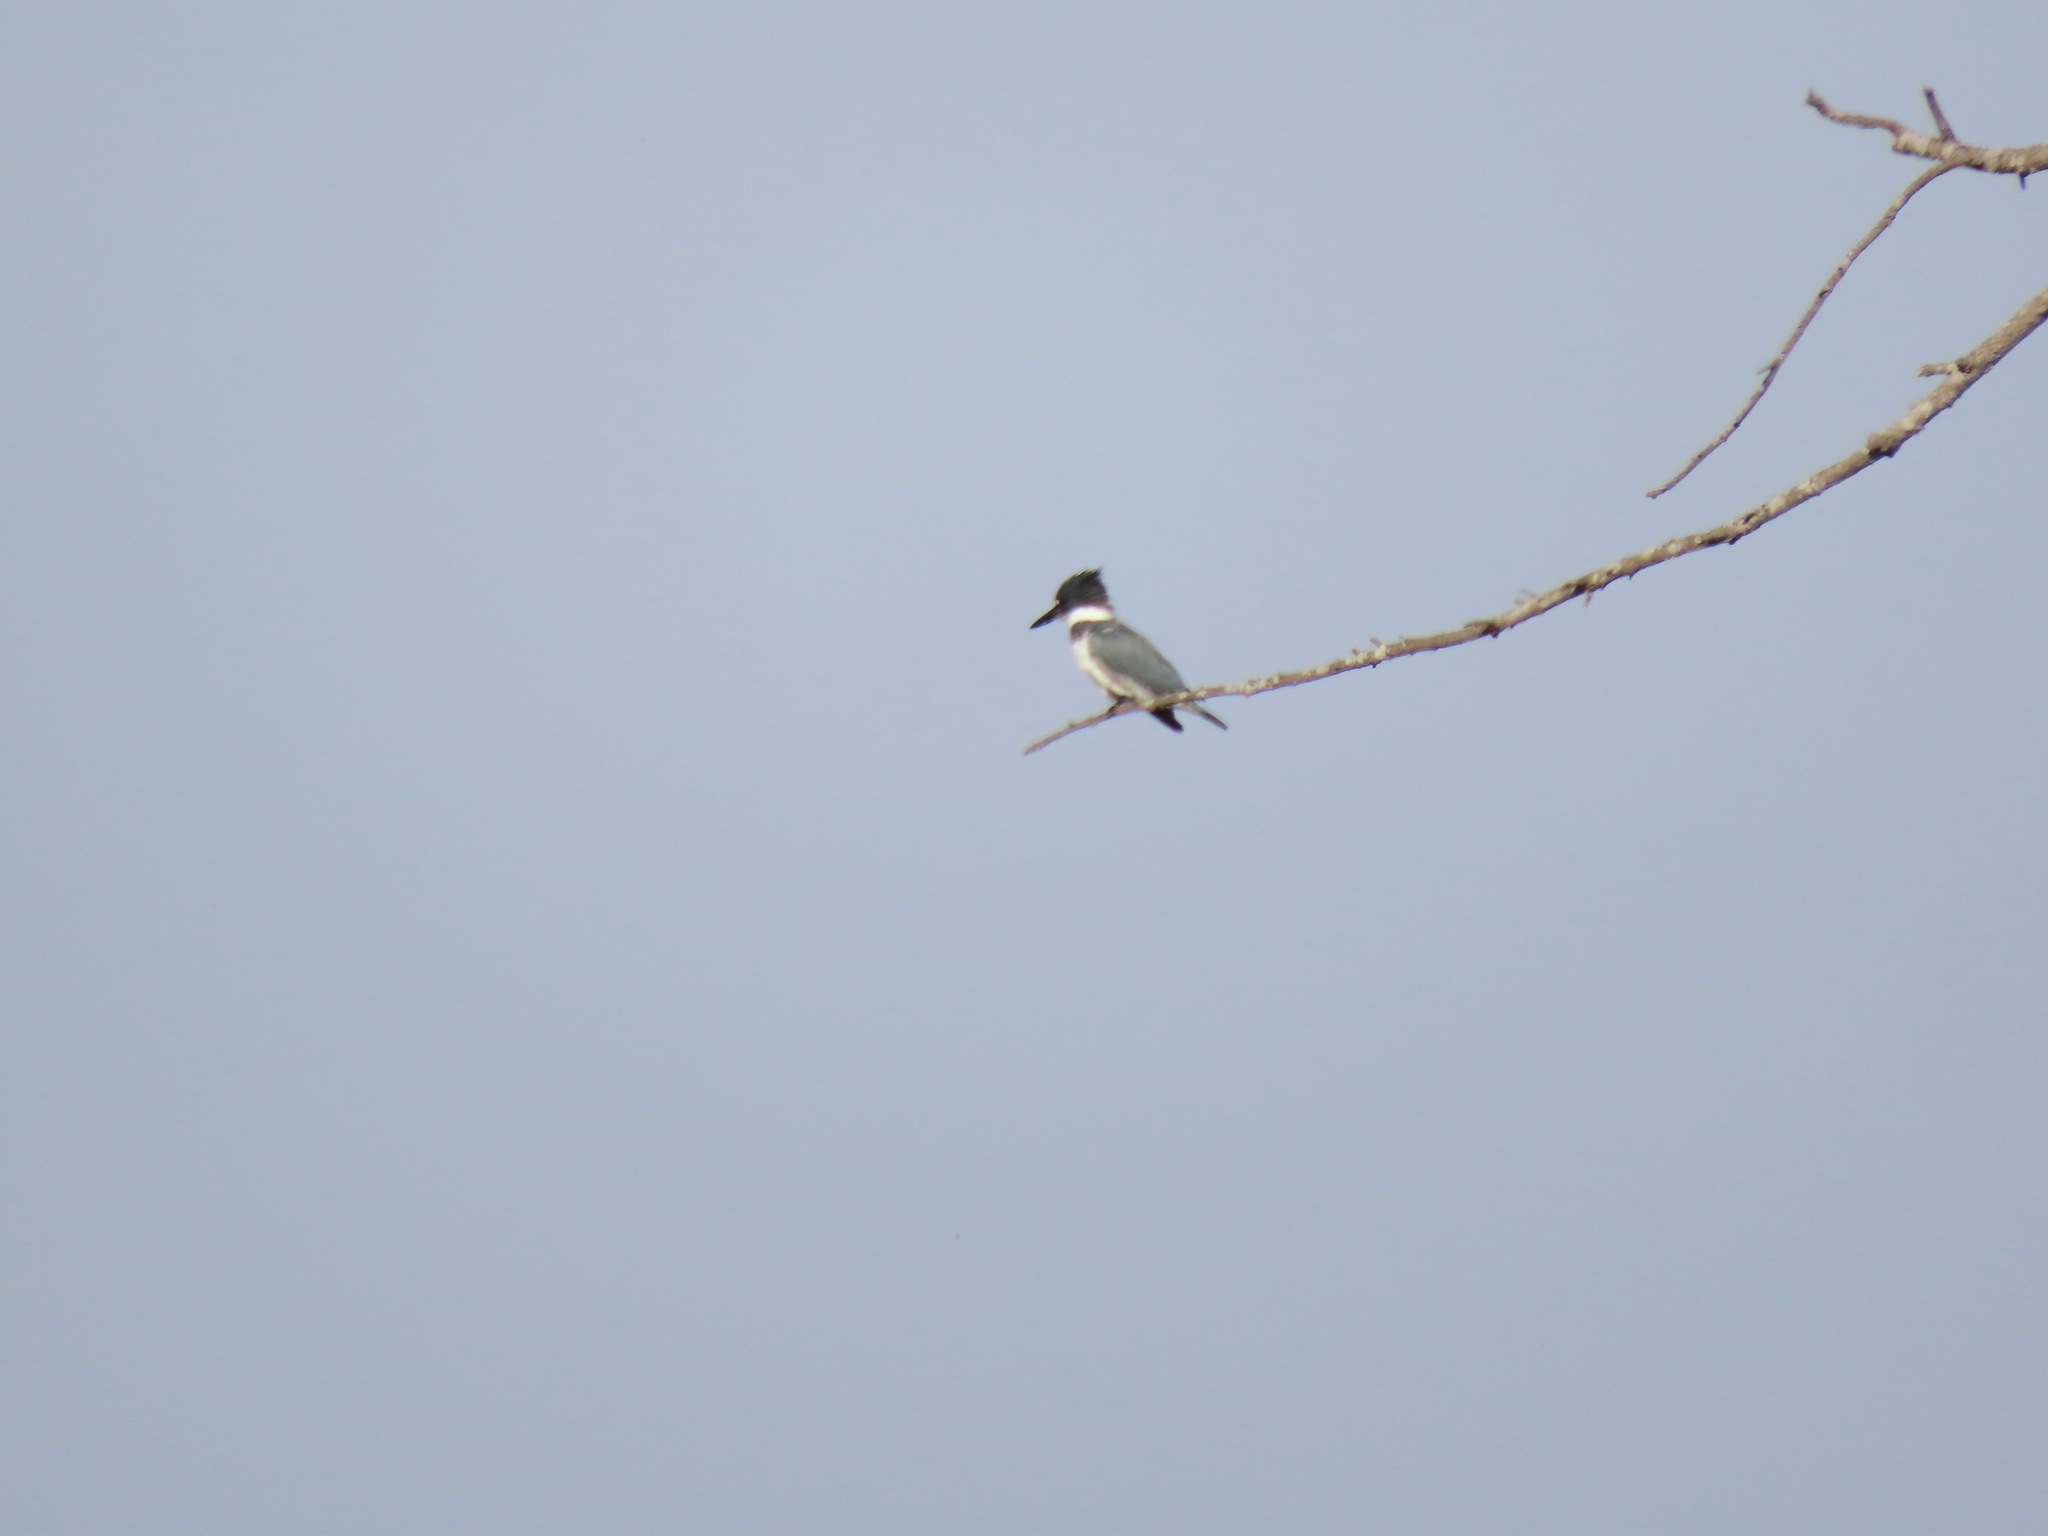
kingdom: Animalia
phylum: Chordata
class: Aves
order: Coraciiformes
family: Alcedinidae
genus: Megaceryle
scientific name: Megaceryle alcyon
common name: Belted kingfisher
